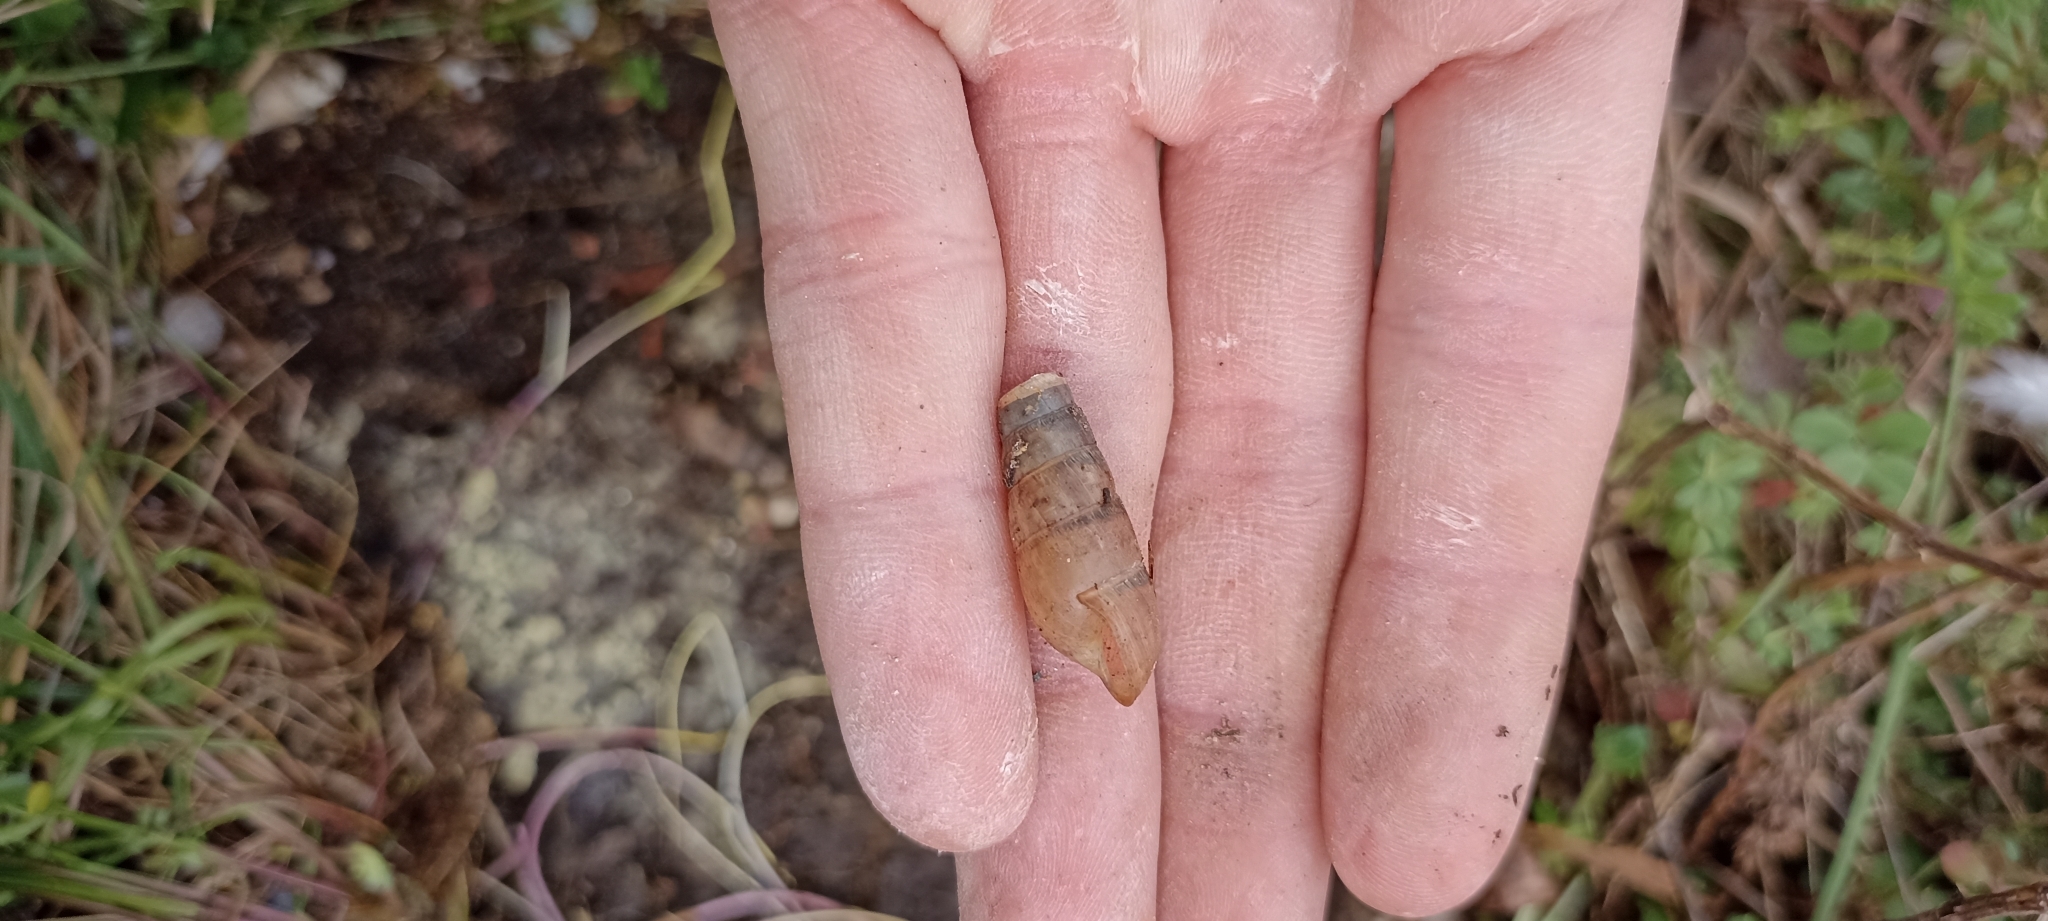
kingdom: Animalia
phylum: Mollusca
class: Gastropoda
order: Stylommatophora
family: Achatinidae
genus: Rumina
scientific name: Rumina decollata
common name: Decollate snail
